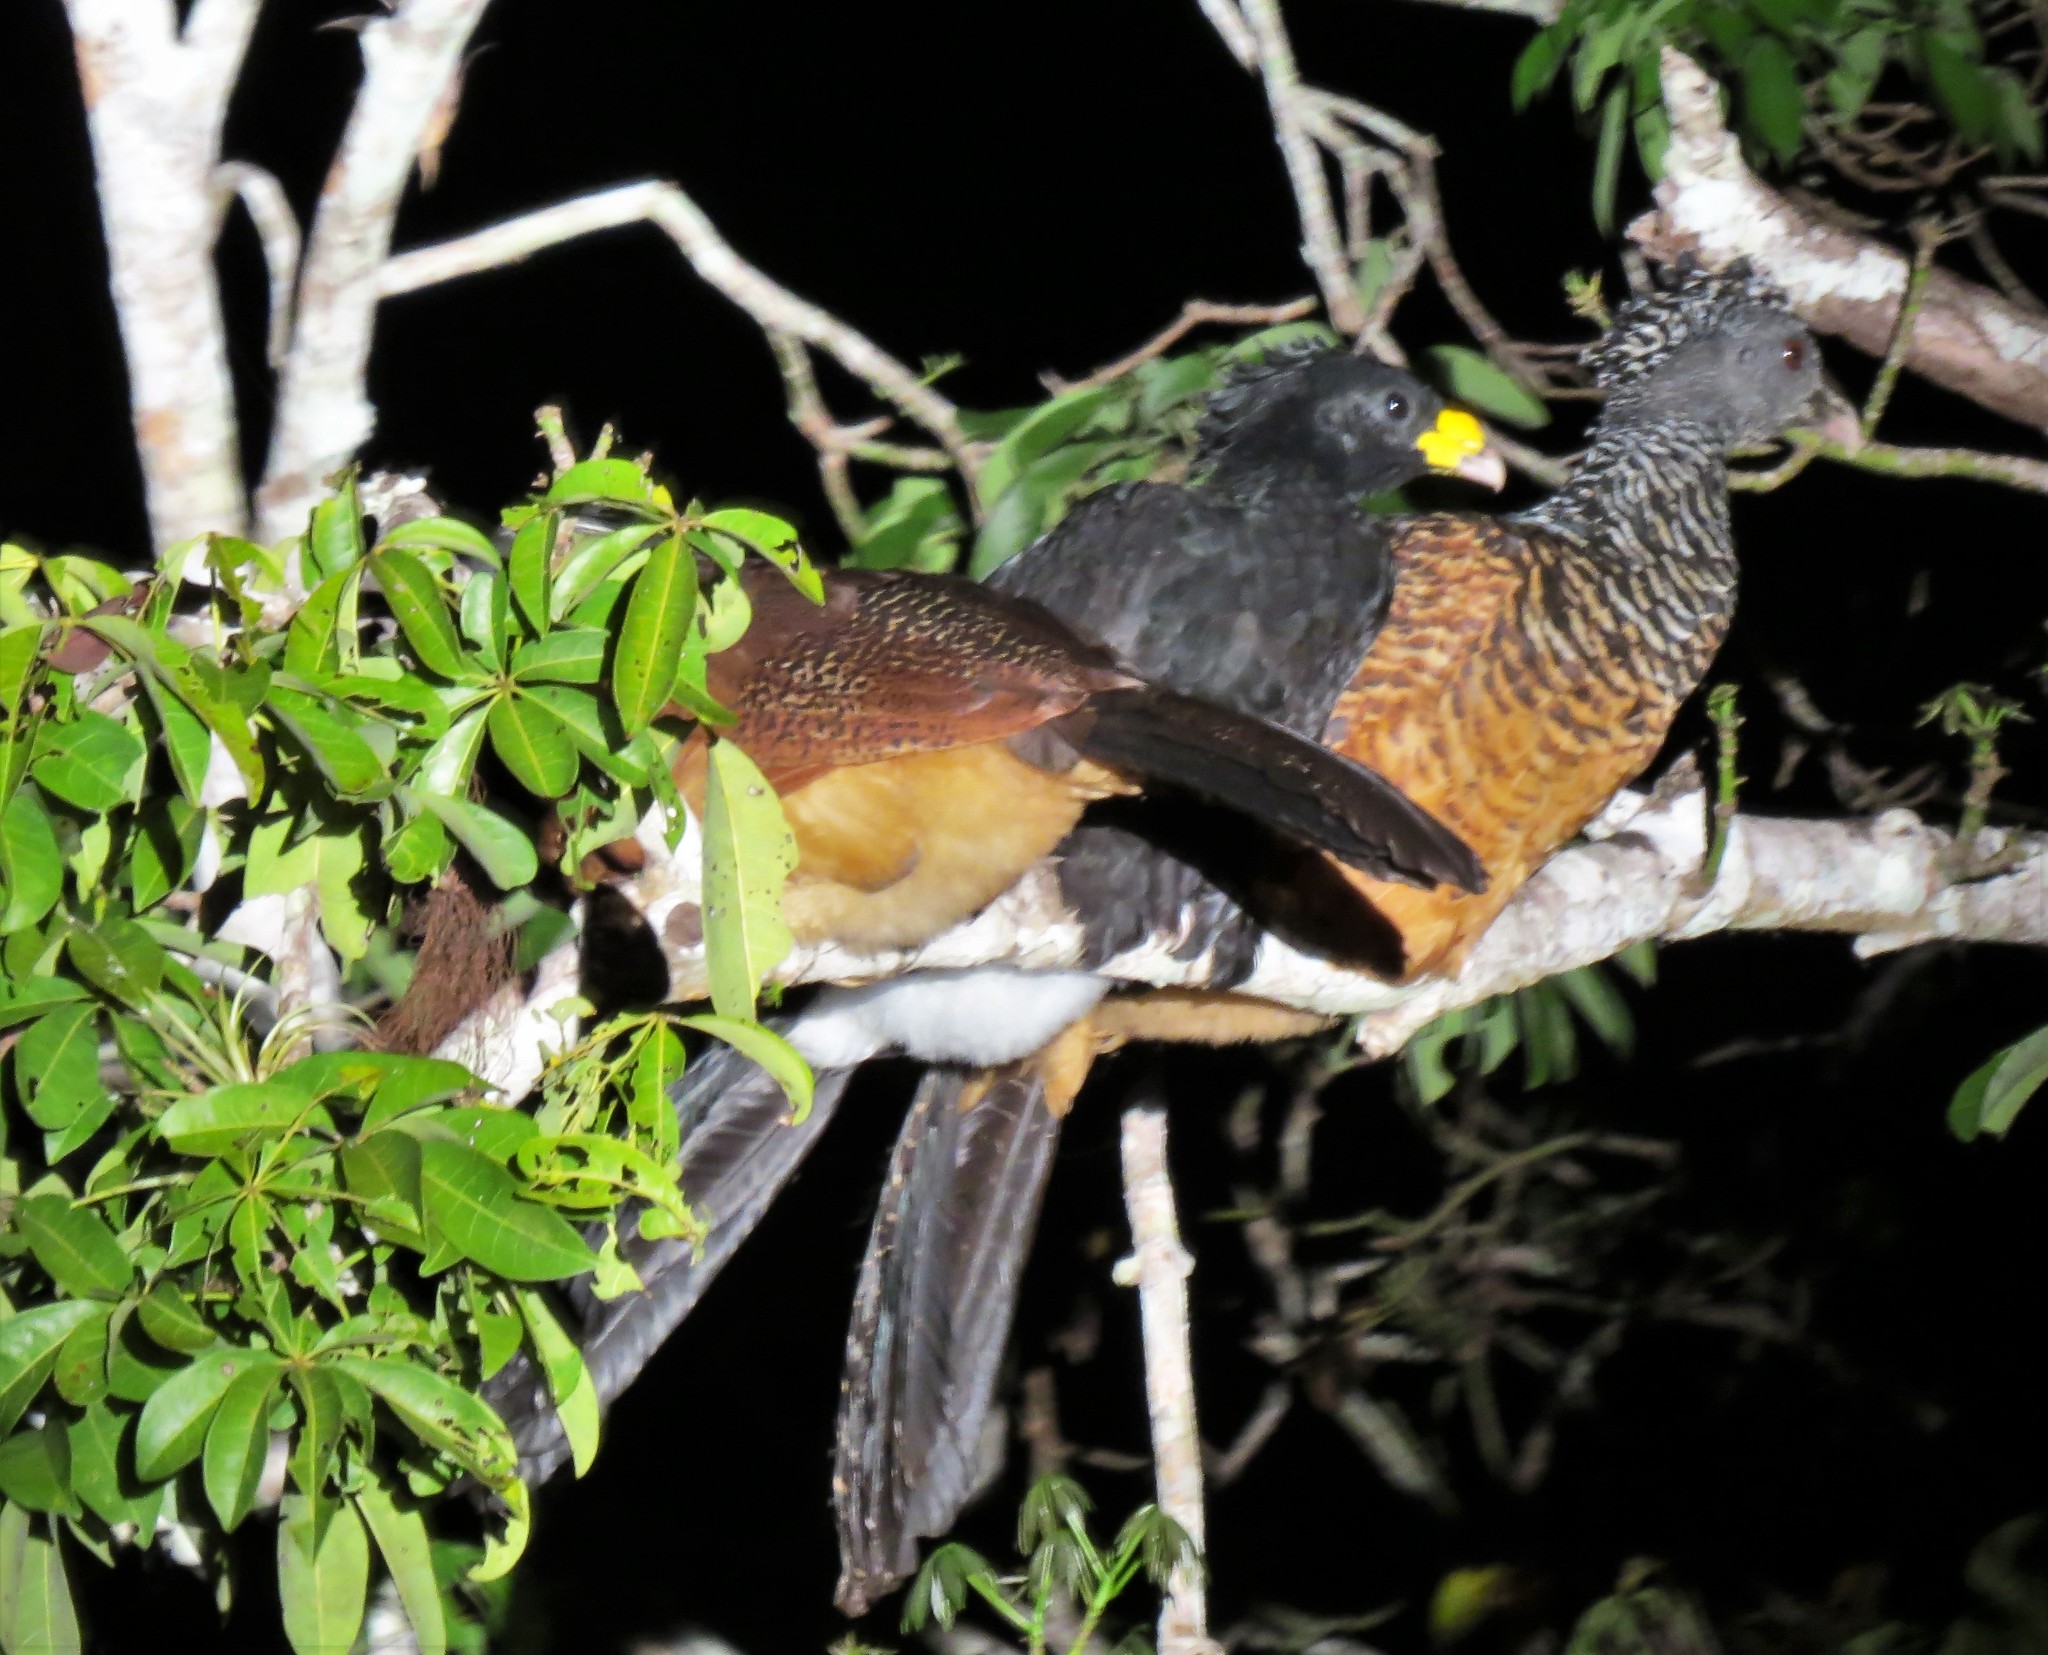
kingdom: Animalia
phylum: Chordata
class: Aves
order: Galliformes
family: Cracidae
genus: Crax
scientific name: Crax rubra
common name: Great curassow
